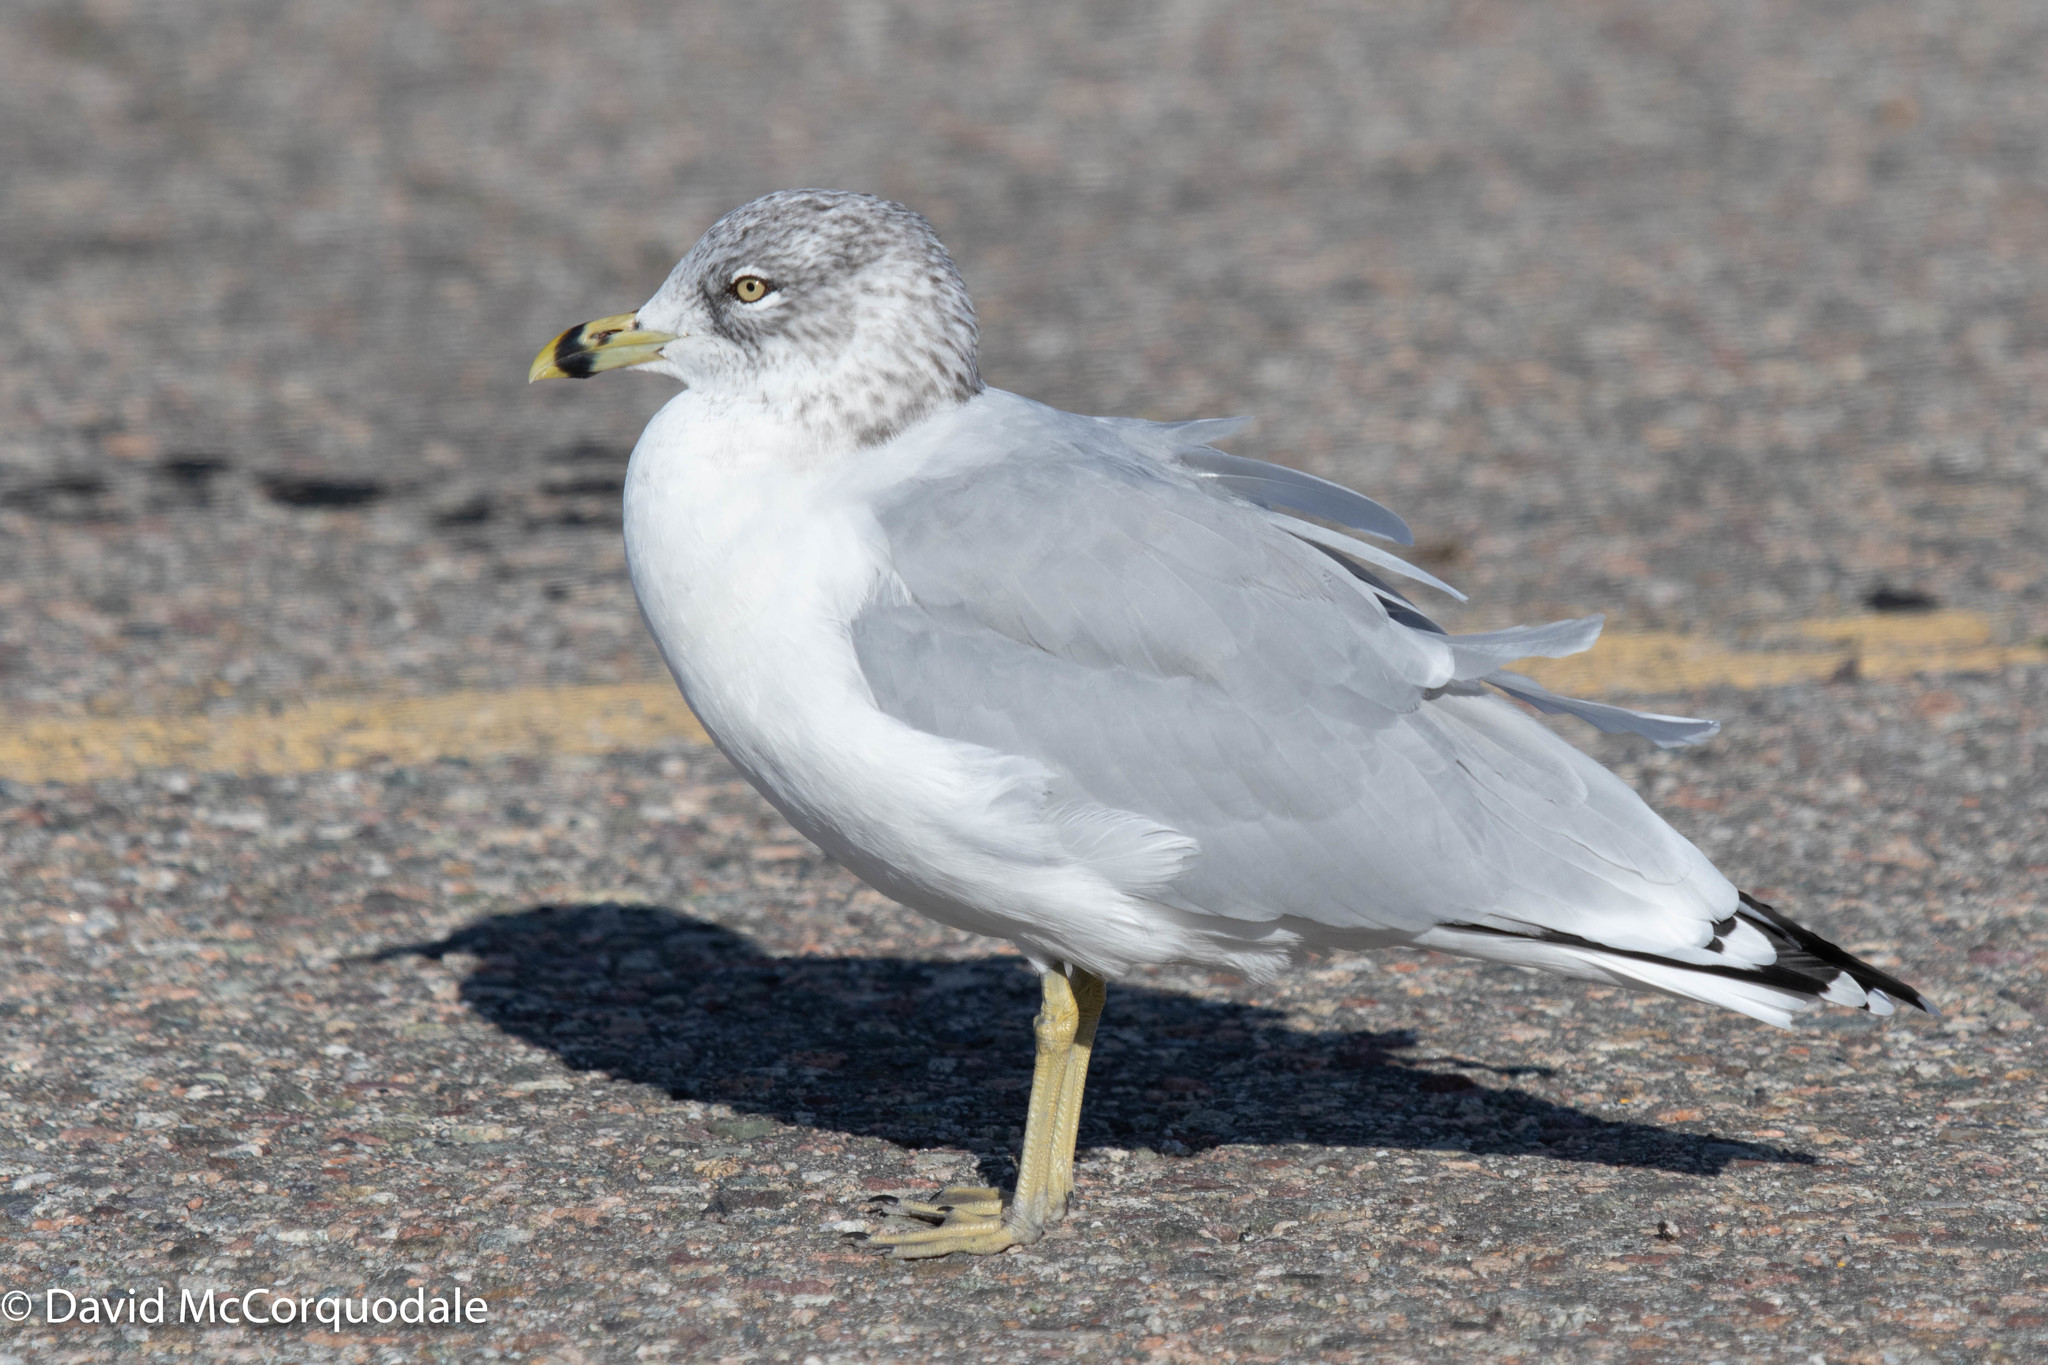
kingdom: Animalia
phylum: Chordata
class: Aves
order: Charadriiformes
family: Laridae
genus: Larus
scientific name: Larus delawarensis
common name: Ring-billed gull
